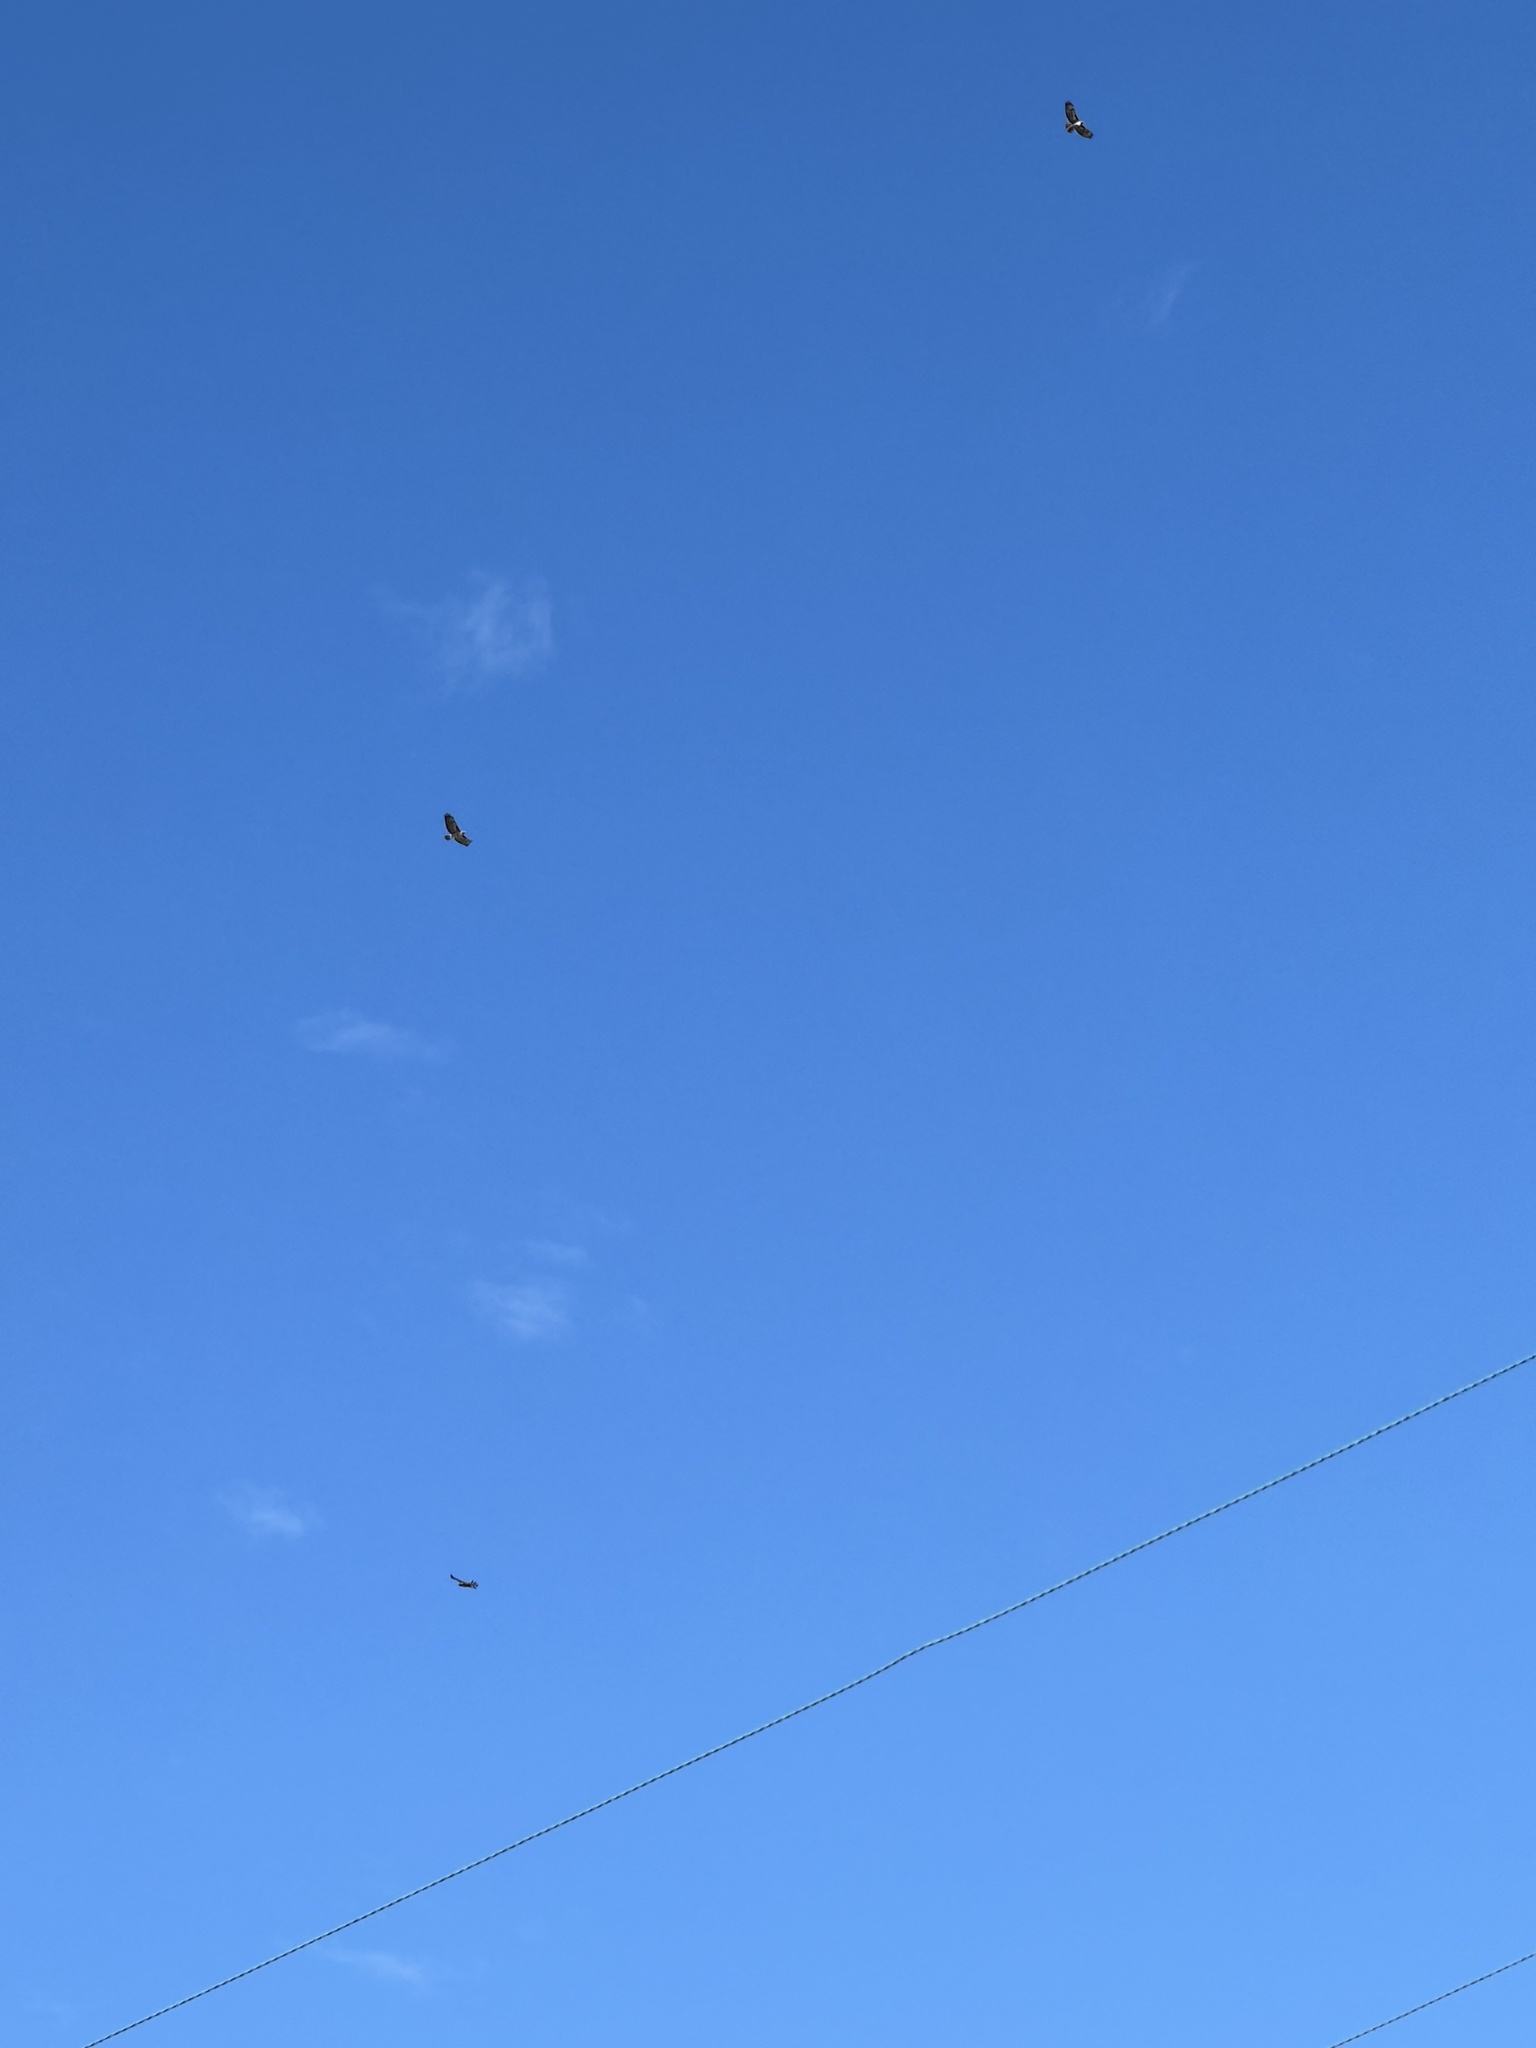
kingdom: Animalia
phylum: Chordata
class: Aves
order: Accipitriformes
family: Accipitridae
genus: Buteo
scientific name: Buteo jamaicensis
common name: Red-tailed hawk
